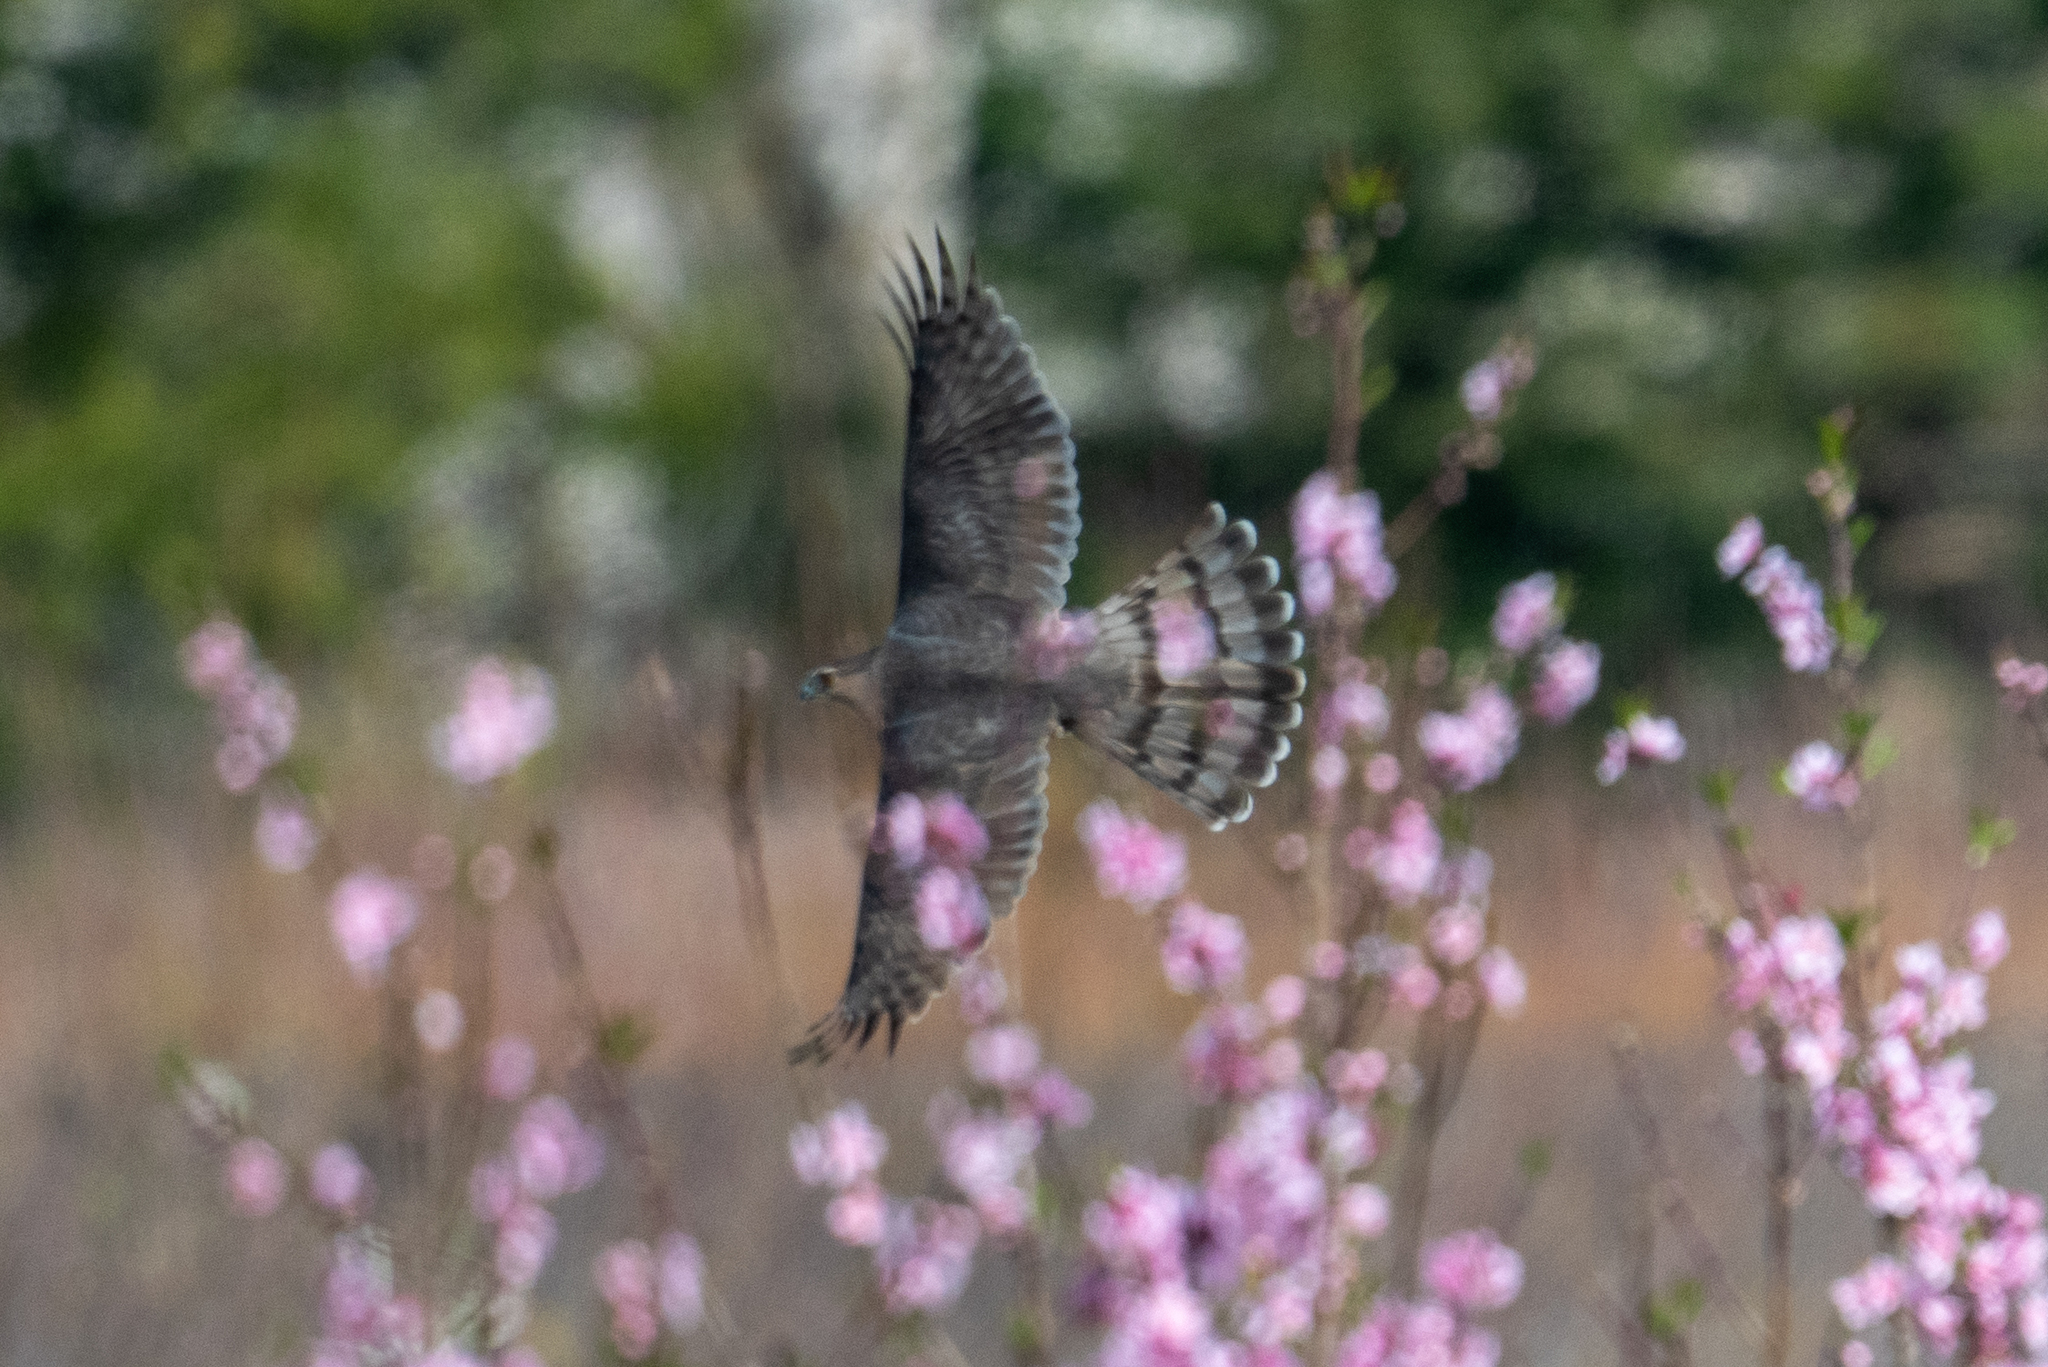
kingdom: Animalia
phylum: Chordata
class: Aves
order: Accipitriformes
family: Accipitridae
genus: Accipiter
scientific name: Accipiter cooperii
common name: Cooper's hawk
